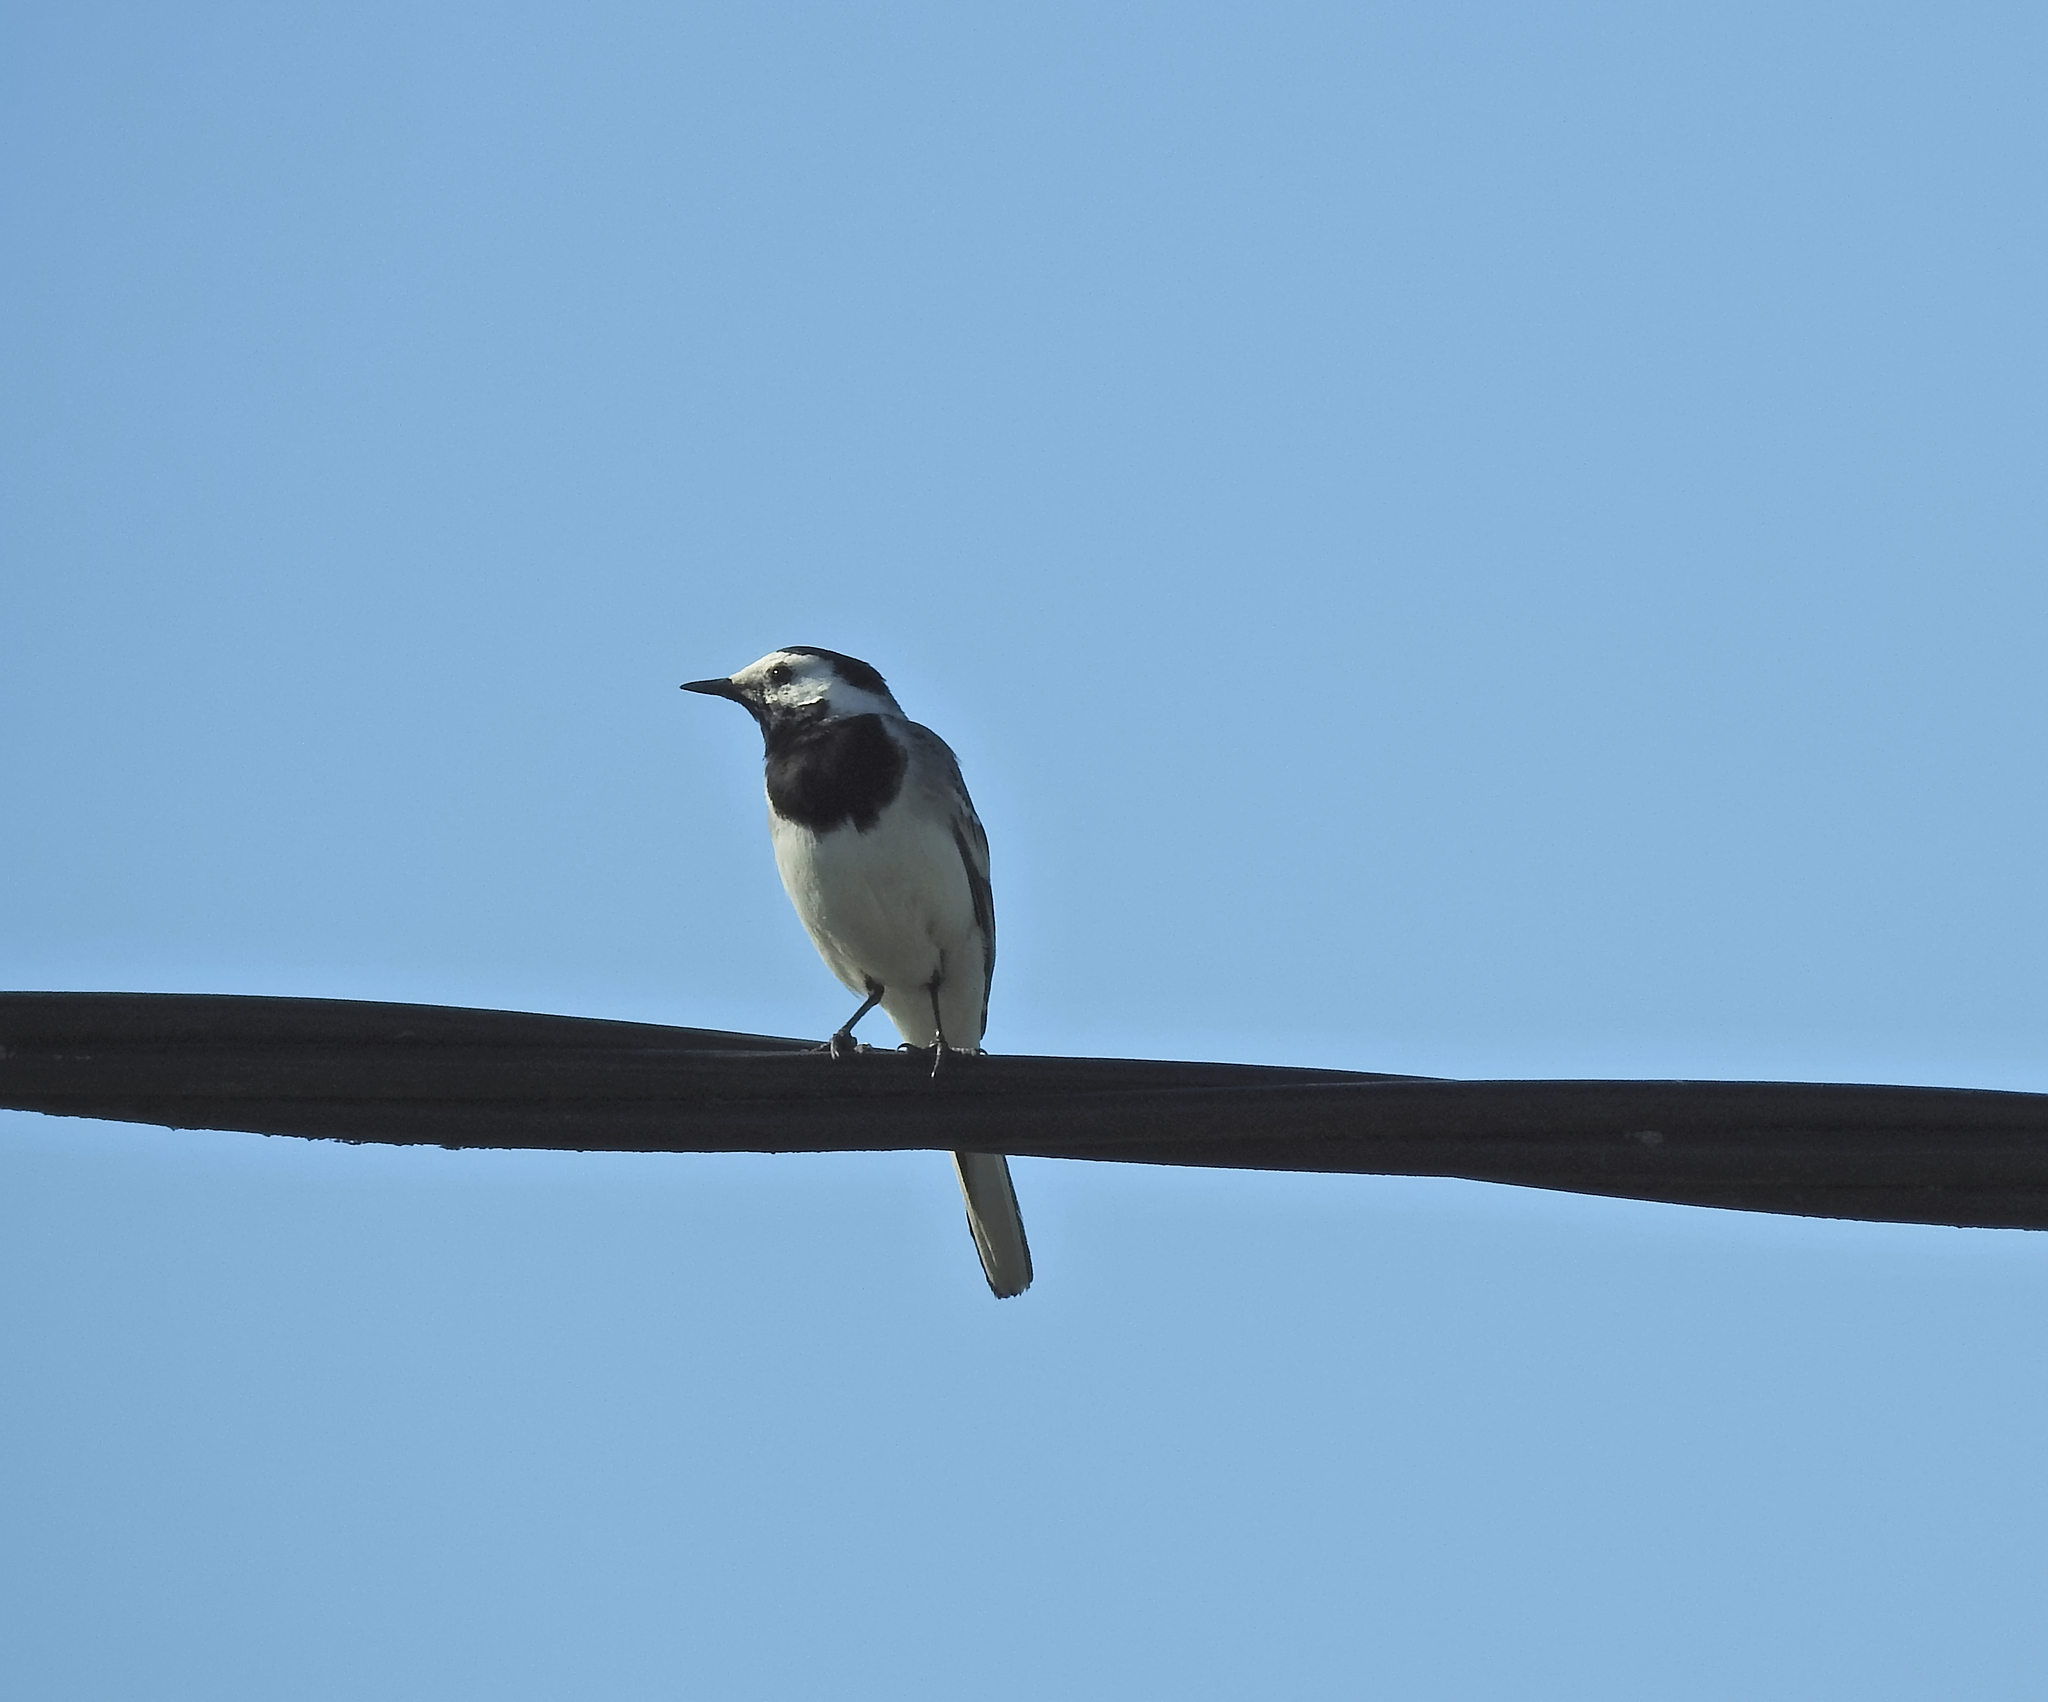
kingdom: Animalia
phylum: Chordata
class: Aves
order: Passeriformes
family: Motacillidae
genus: Motacilla
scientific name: Motacilla alba
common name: White wagtail
